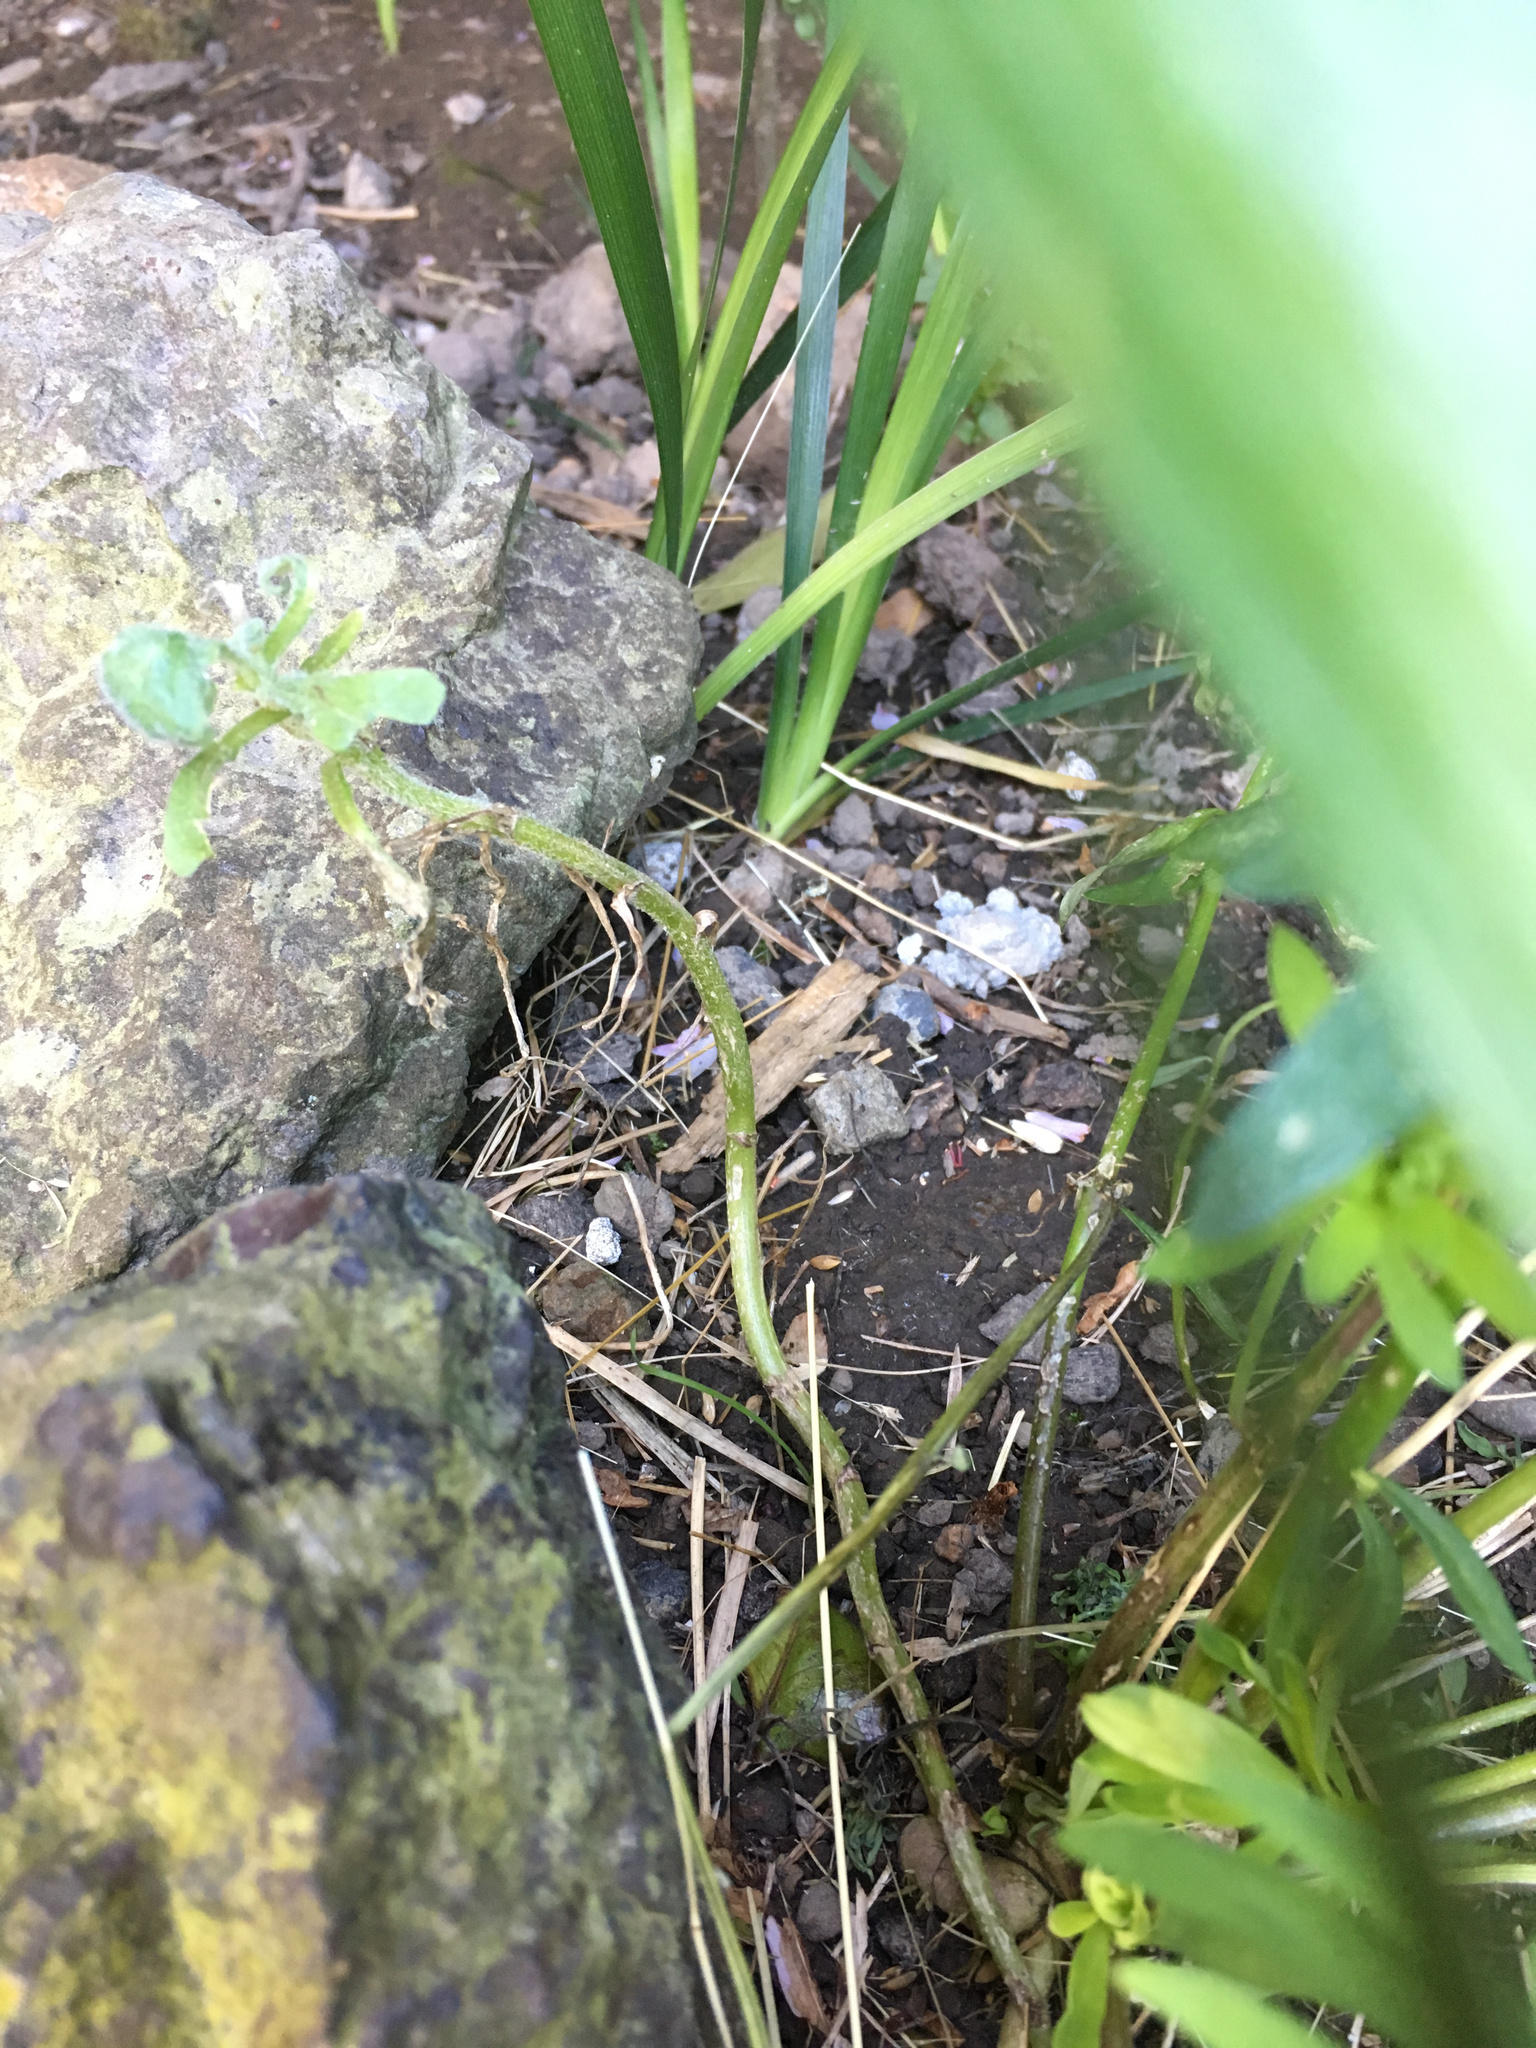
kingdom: Plantae
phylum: Tracheophyta
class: Magnoliopsida
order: Asterales
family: Asteraceae
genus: Senecio
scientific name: Senecio glomeratus
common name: Cutleaf burnweed
